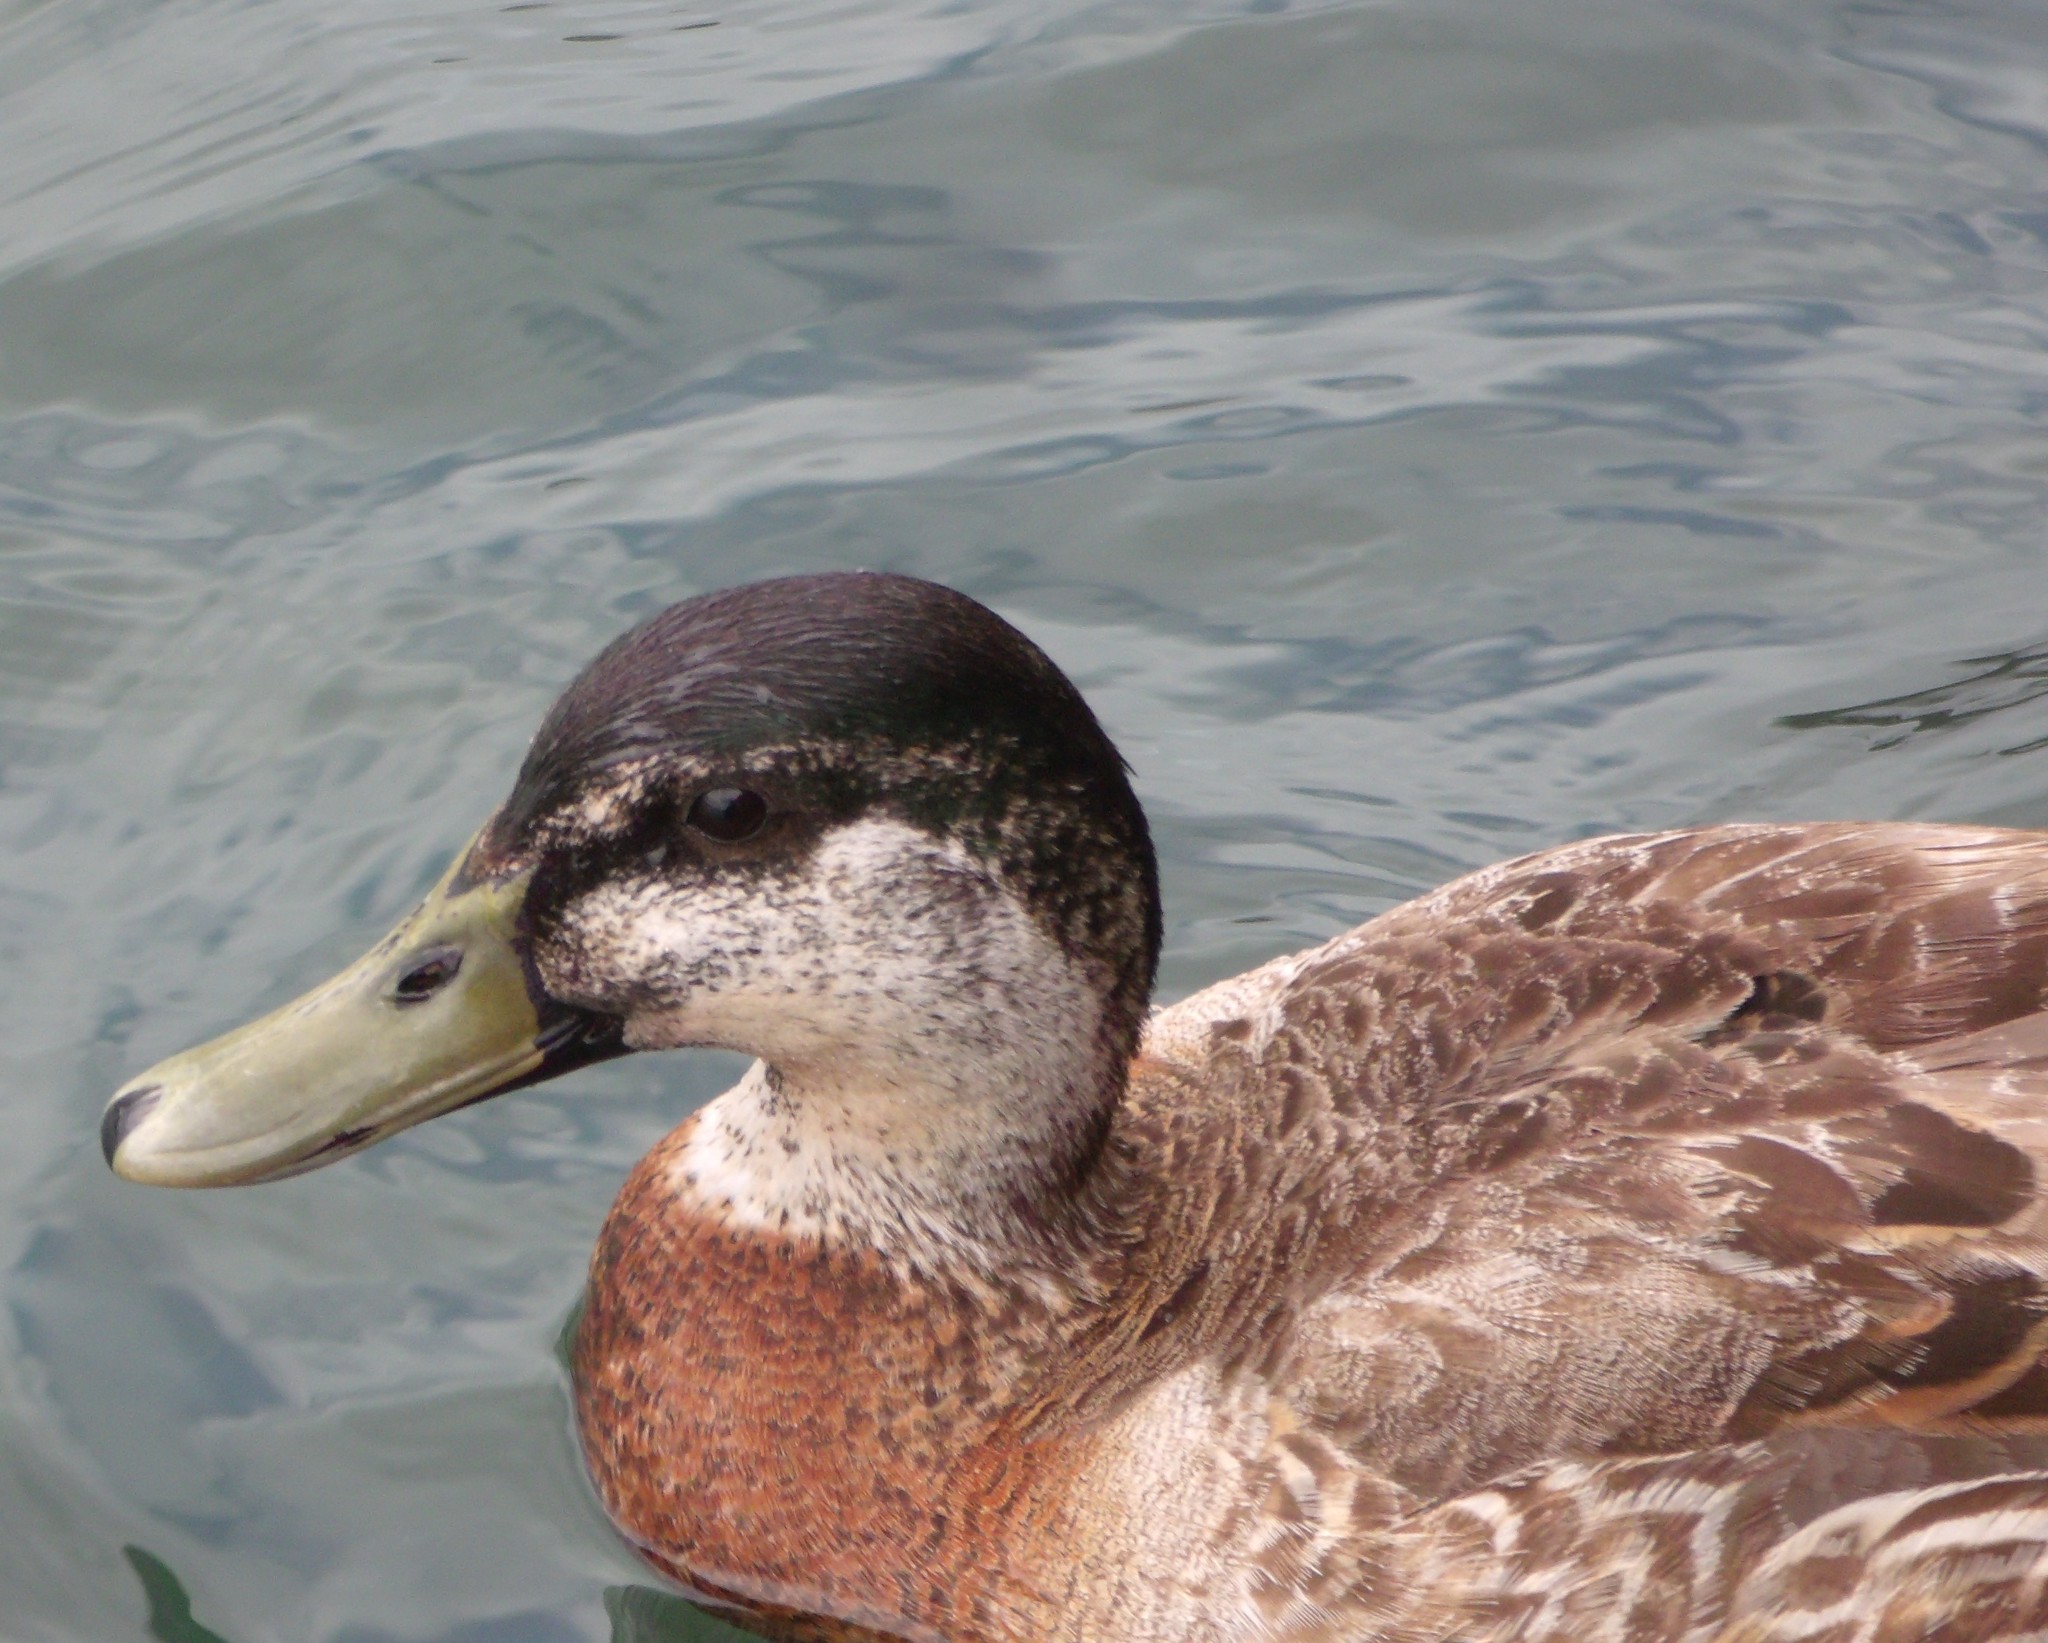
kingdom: Animalia
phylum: Chordata
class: Aves
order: Anseriformes
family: Anatidae
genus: Anas
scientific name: Anas
